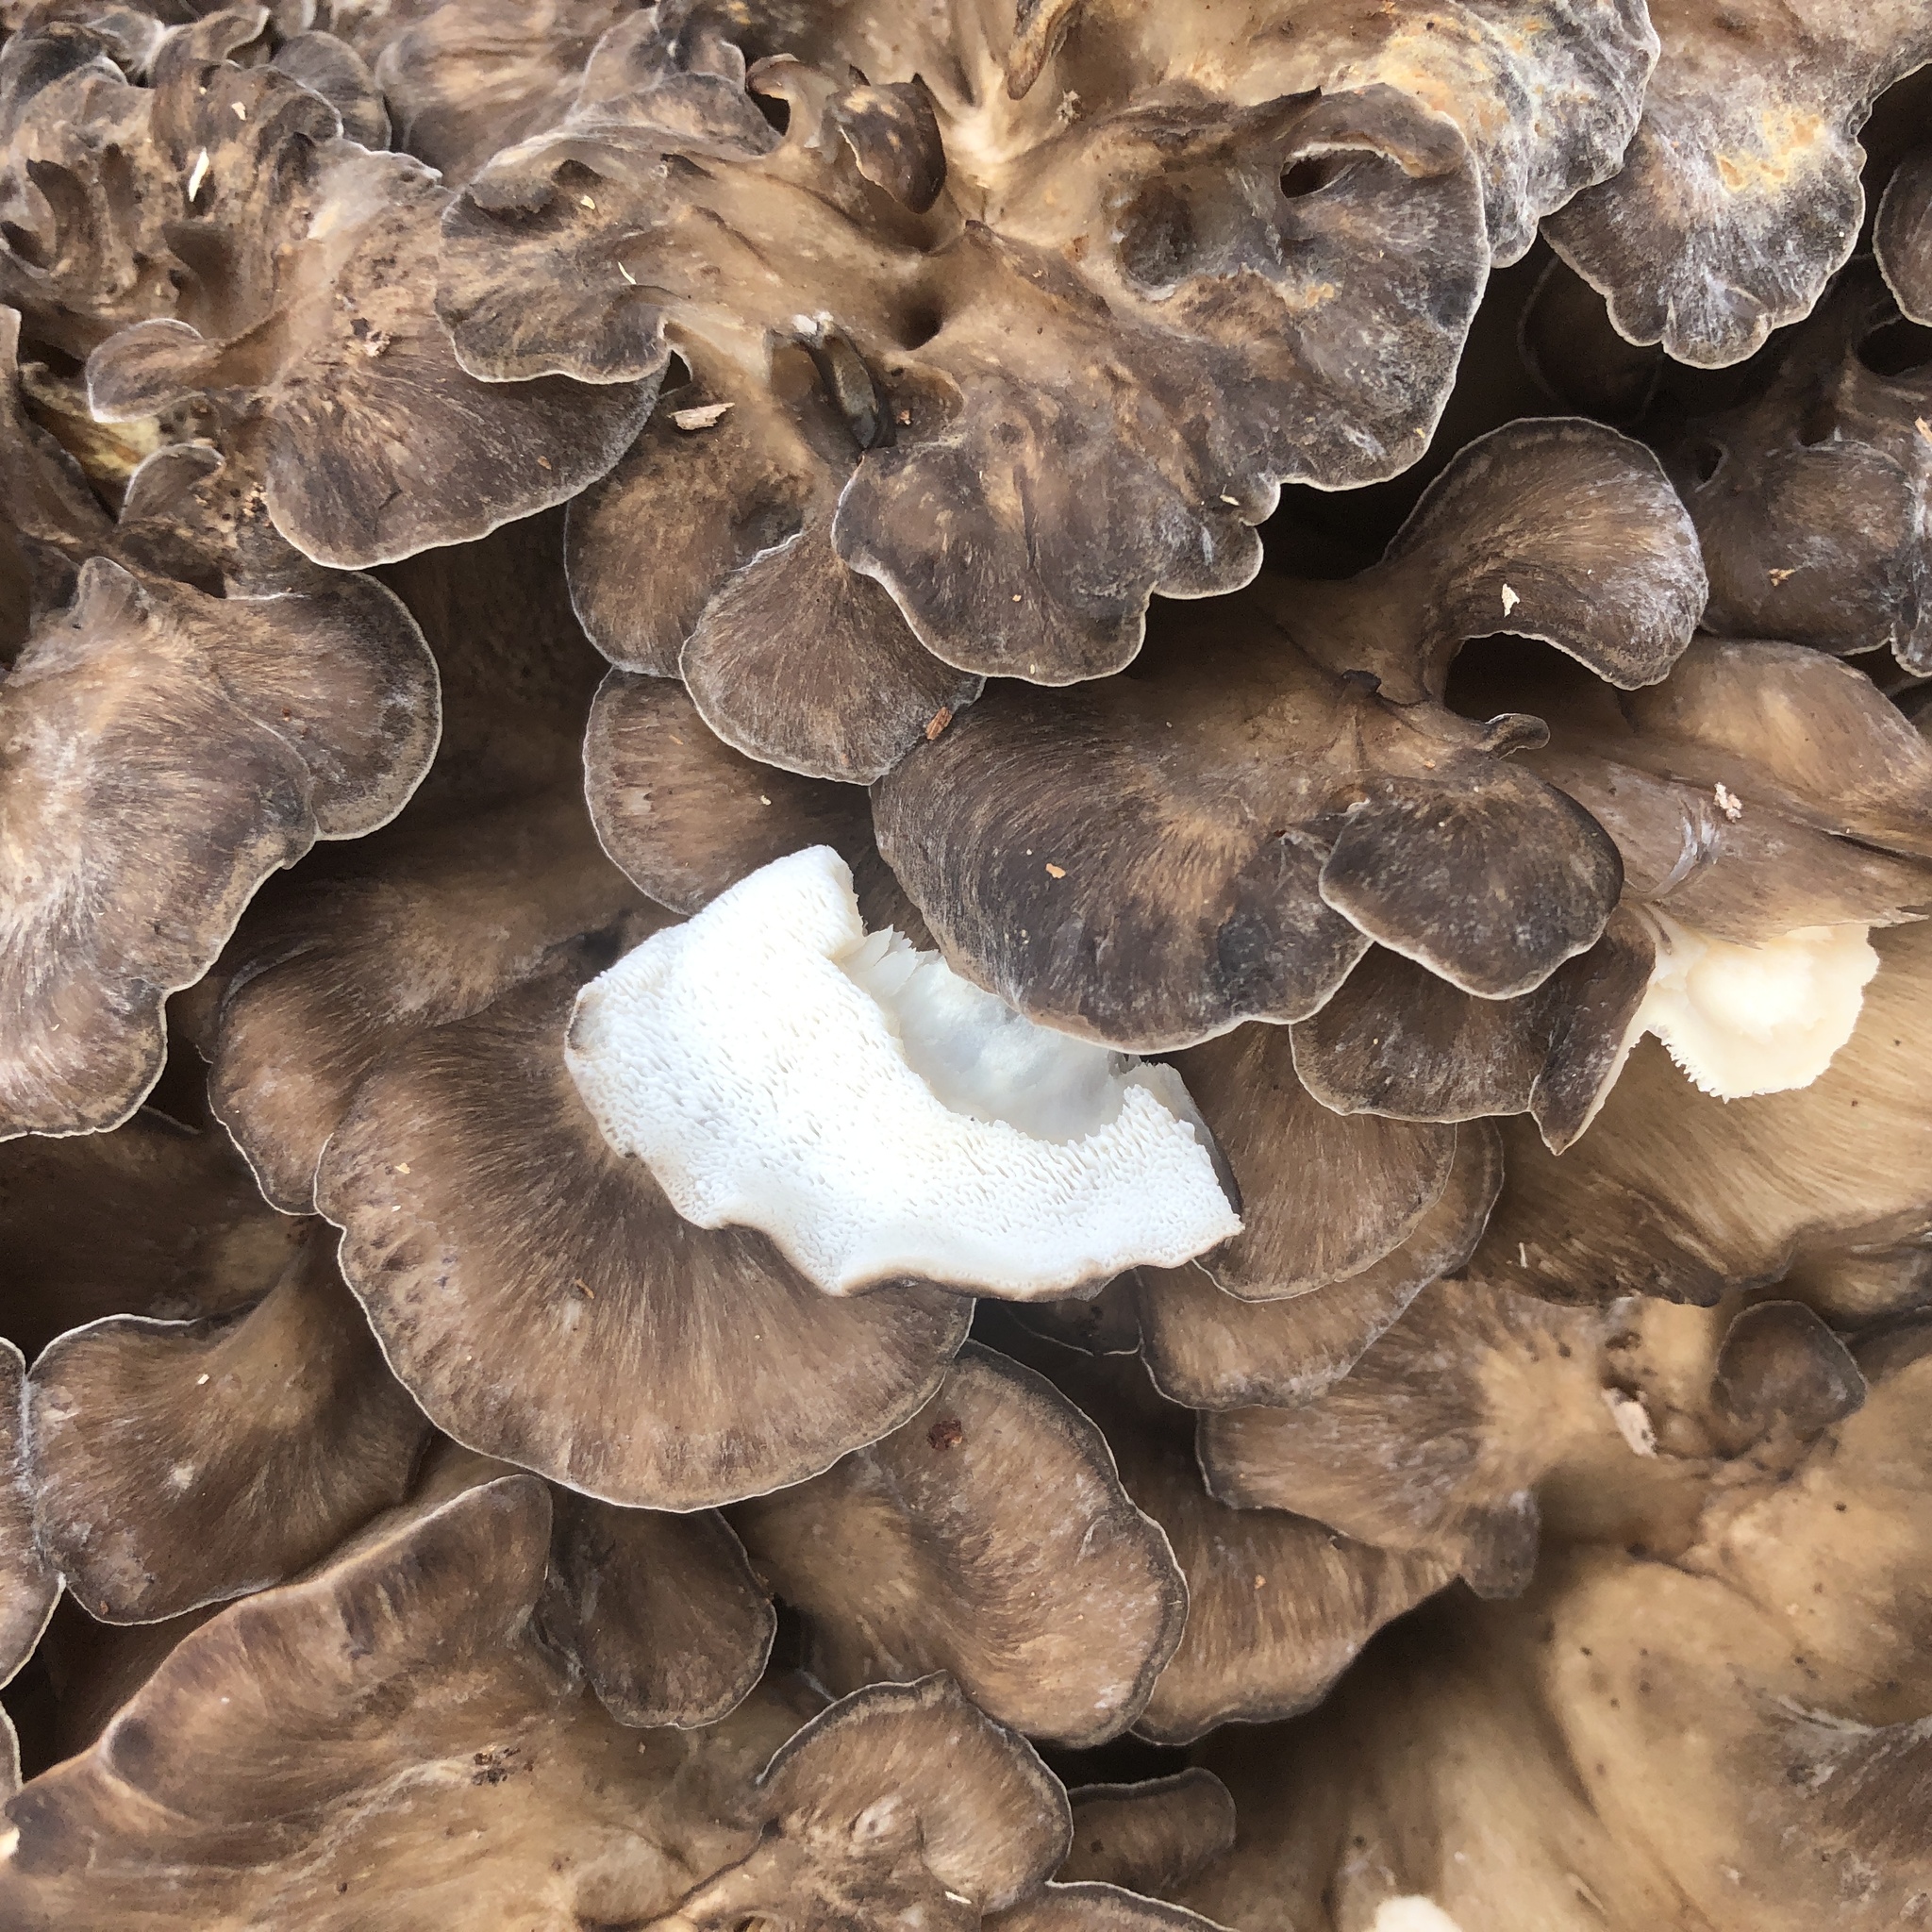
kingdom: Fungi
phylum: Basidiomycota
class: Agaricomycetes
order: Polyporales
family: Grifolaceae
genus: Grifola
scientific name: Grifola frondosa
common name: Hen of the woods
